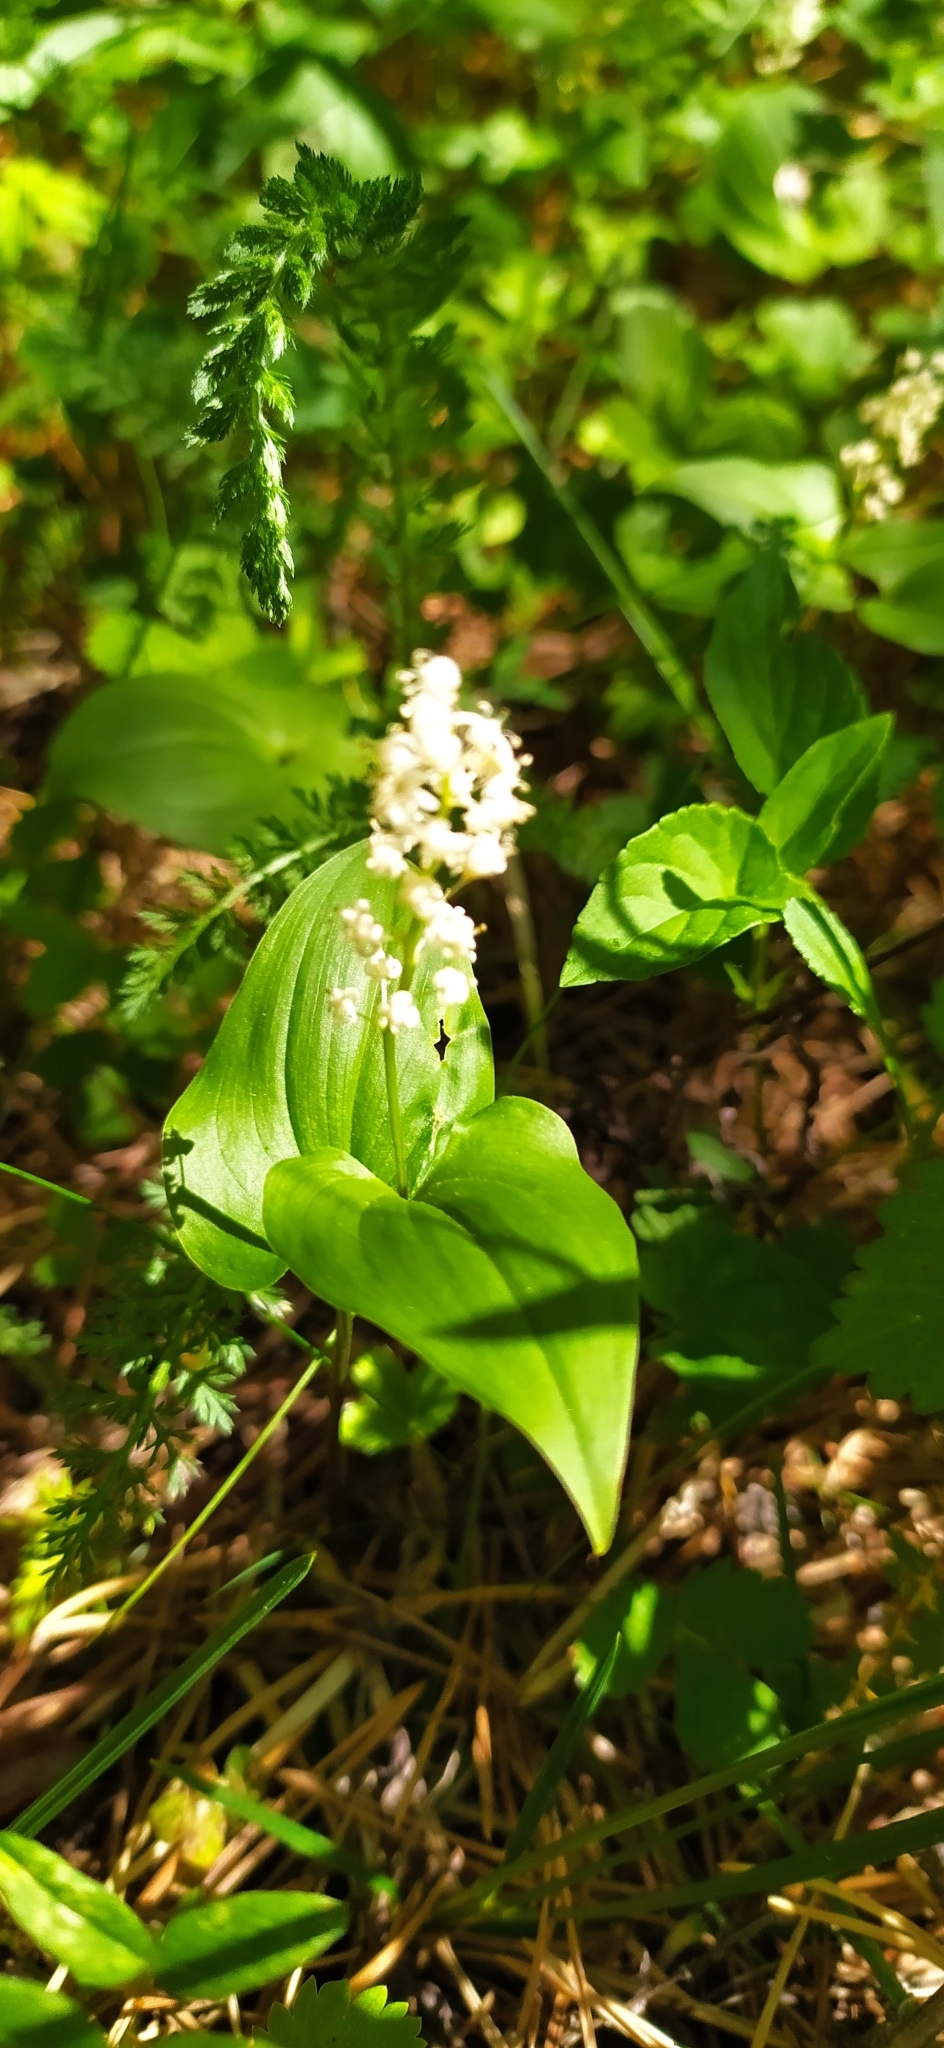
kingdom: Plantae
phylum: Tracheophyta
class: Liliopsida
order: Asparagales
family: Asparagaceae
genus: Maianthemum
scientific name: Maianthemum bifolium
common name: May lily
